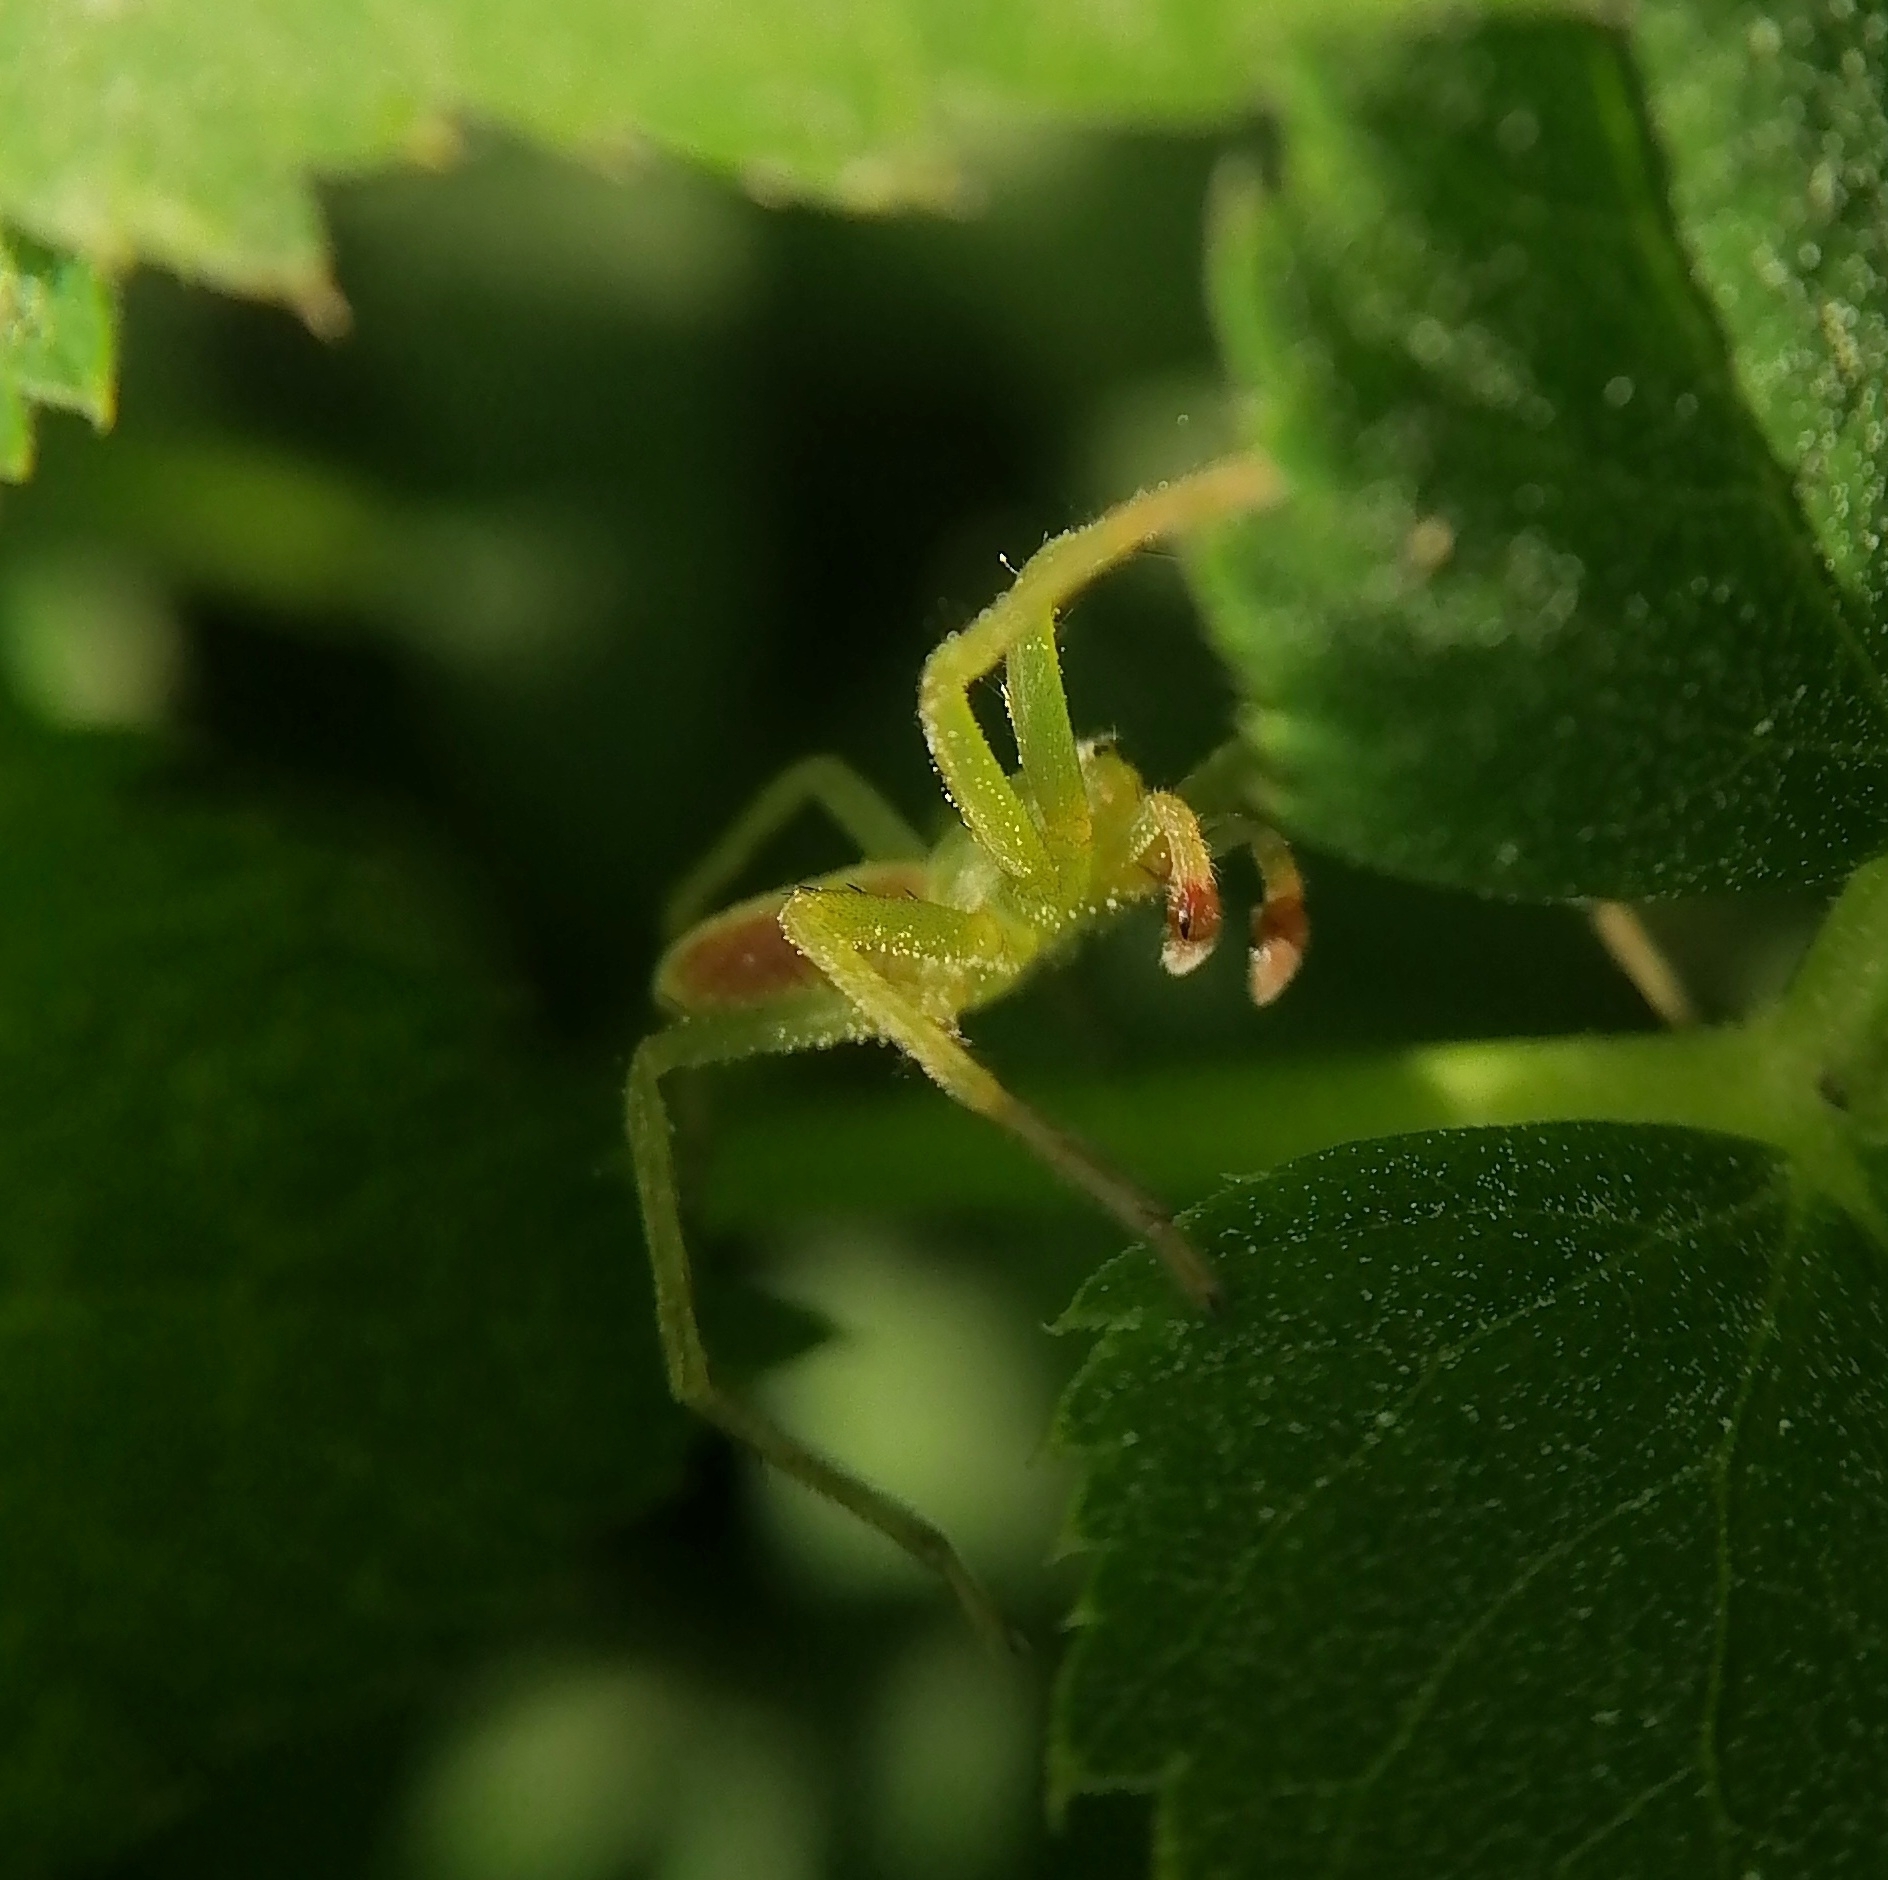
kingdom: Animalia
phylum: Arthropoda
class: Arachnida
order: Araneae
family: Sparassidae
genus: Micrommata
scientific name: Micrommata virescens
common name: Green spider
